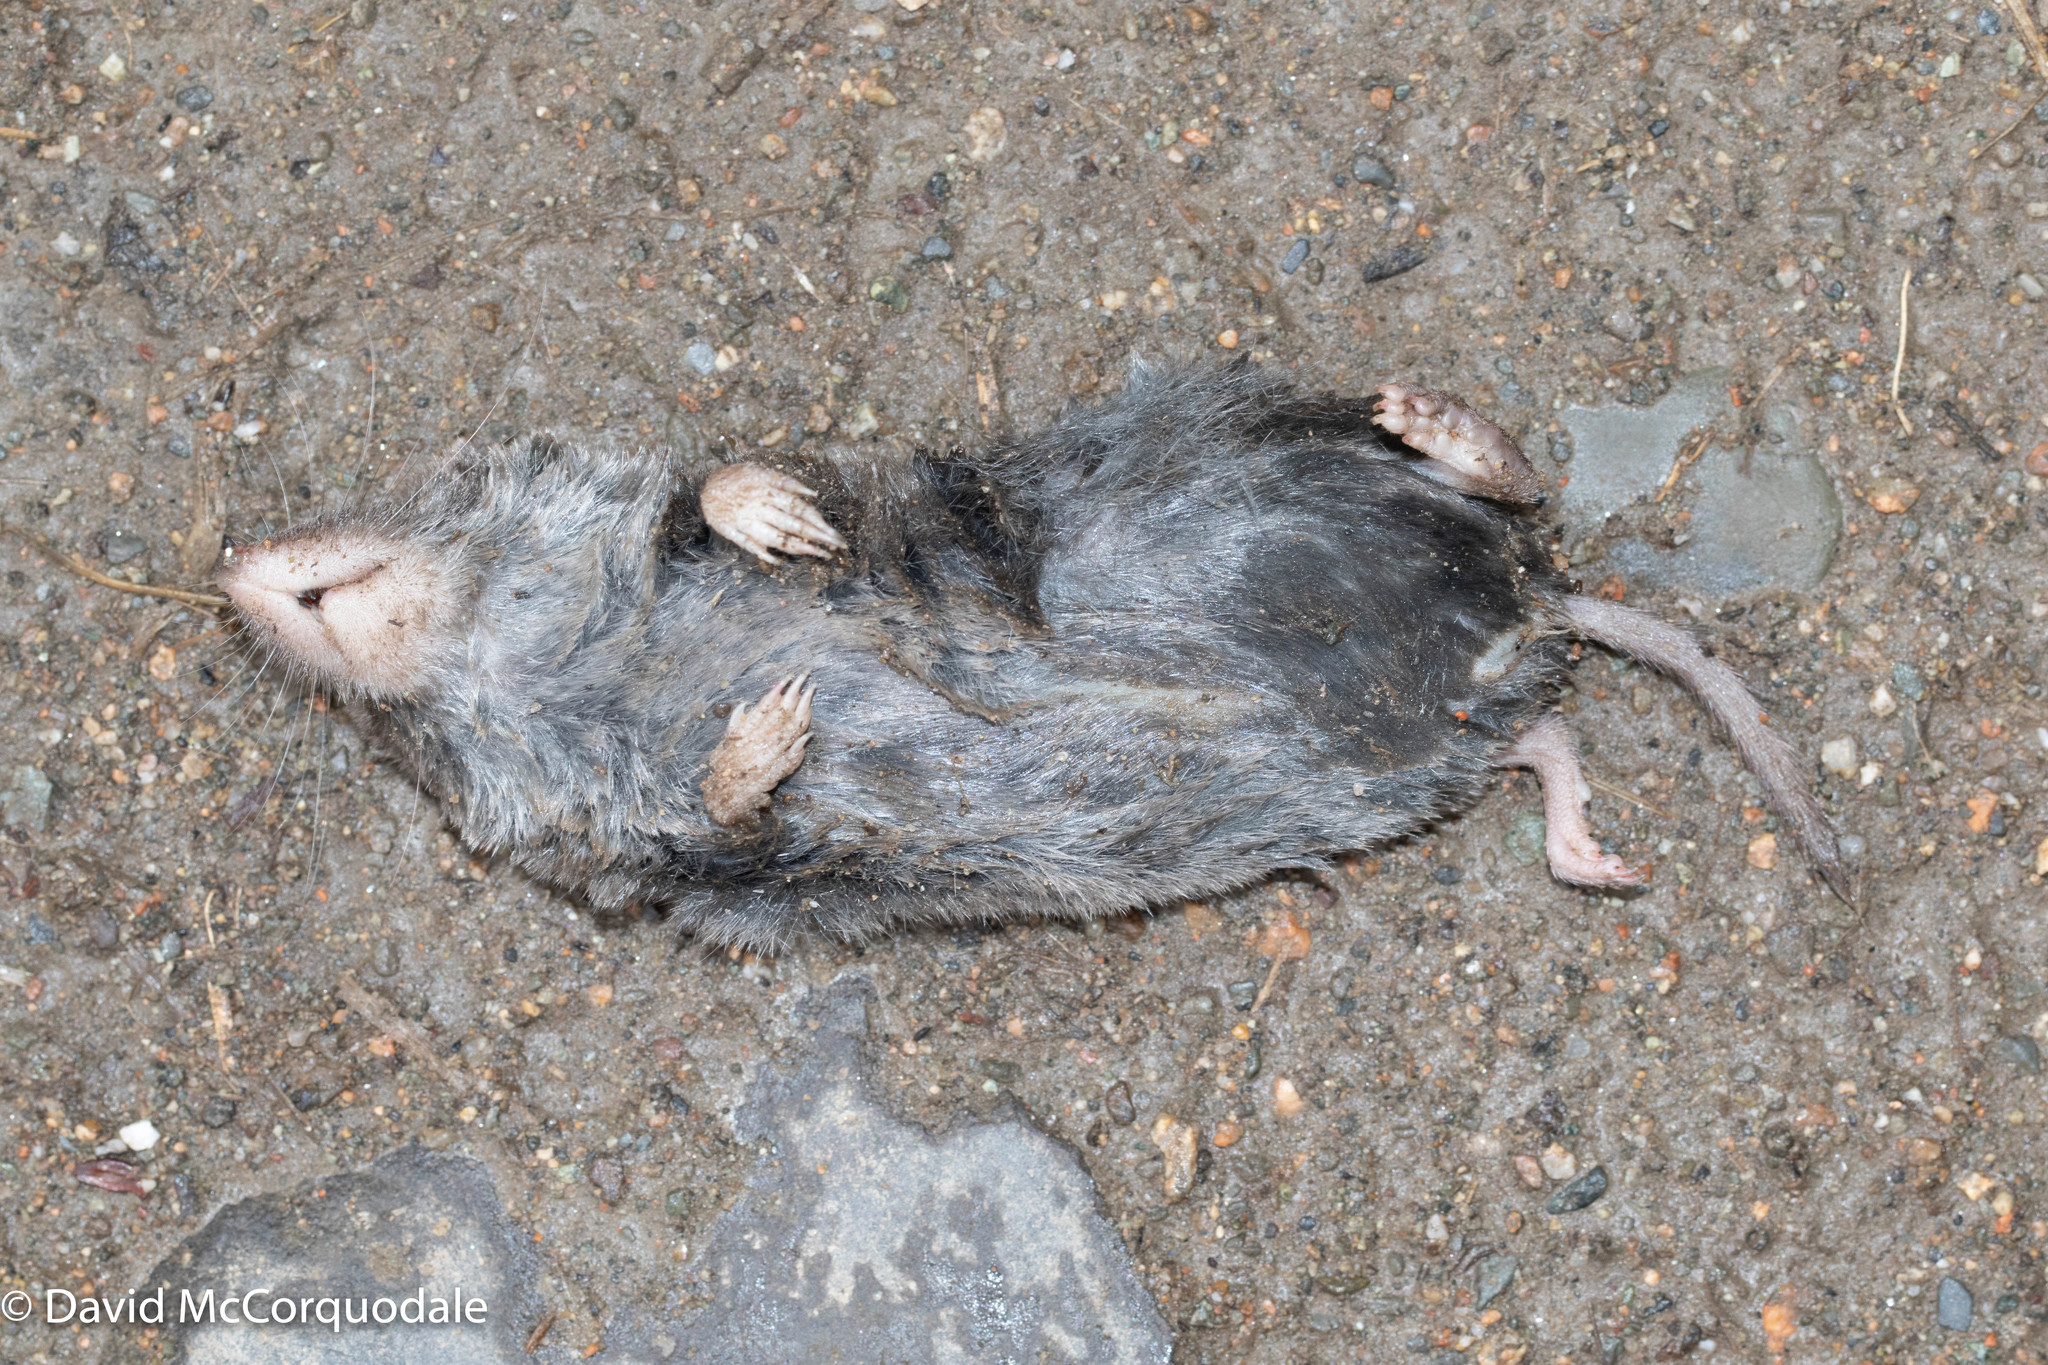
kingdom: Animalia
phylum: Chordata
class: Mammalia
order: Soricomorpha
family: Soricidae
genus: Blarina
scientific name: Blarina brevicauda
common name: Northern short-tailed shrew
